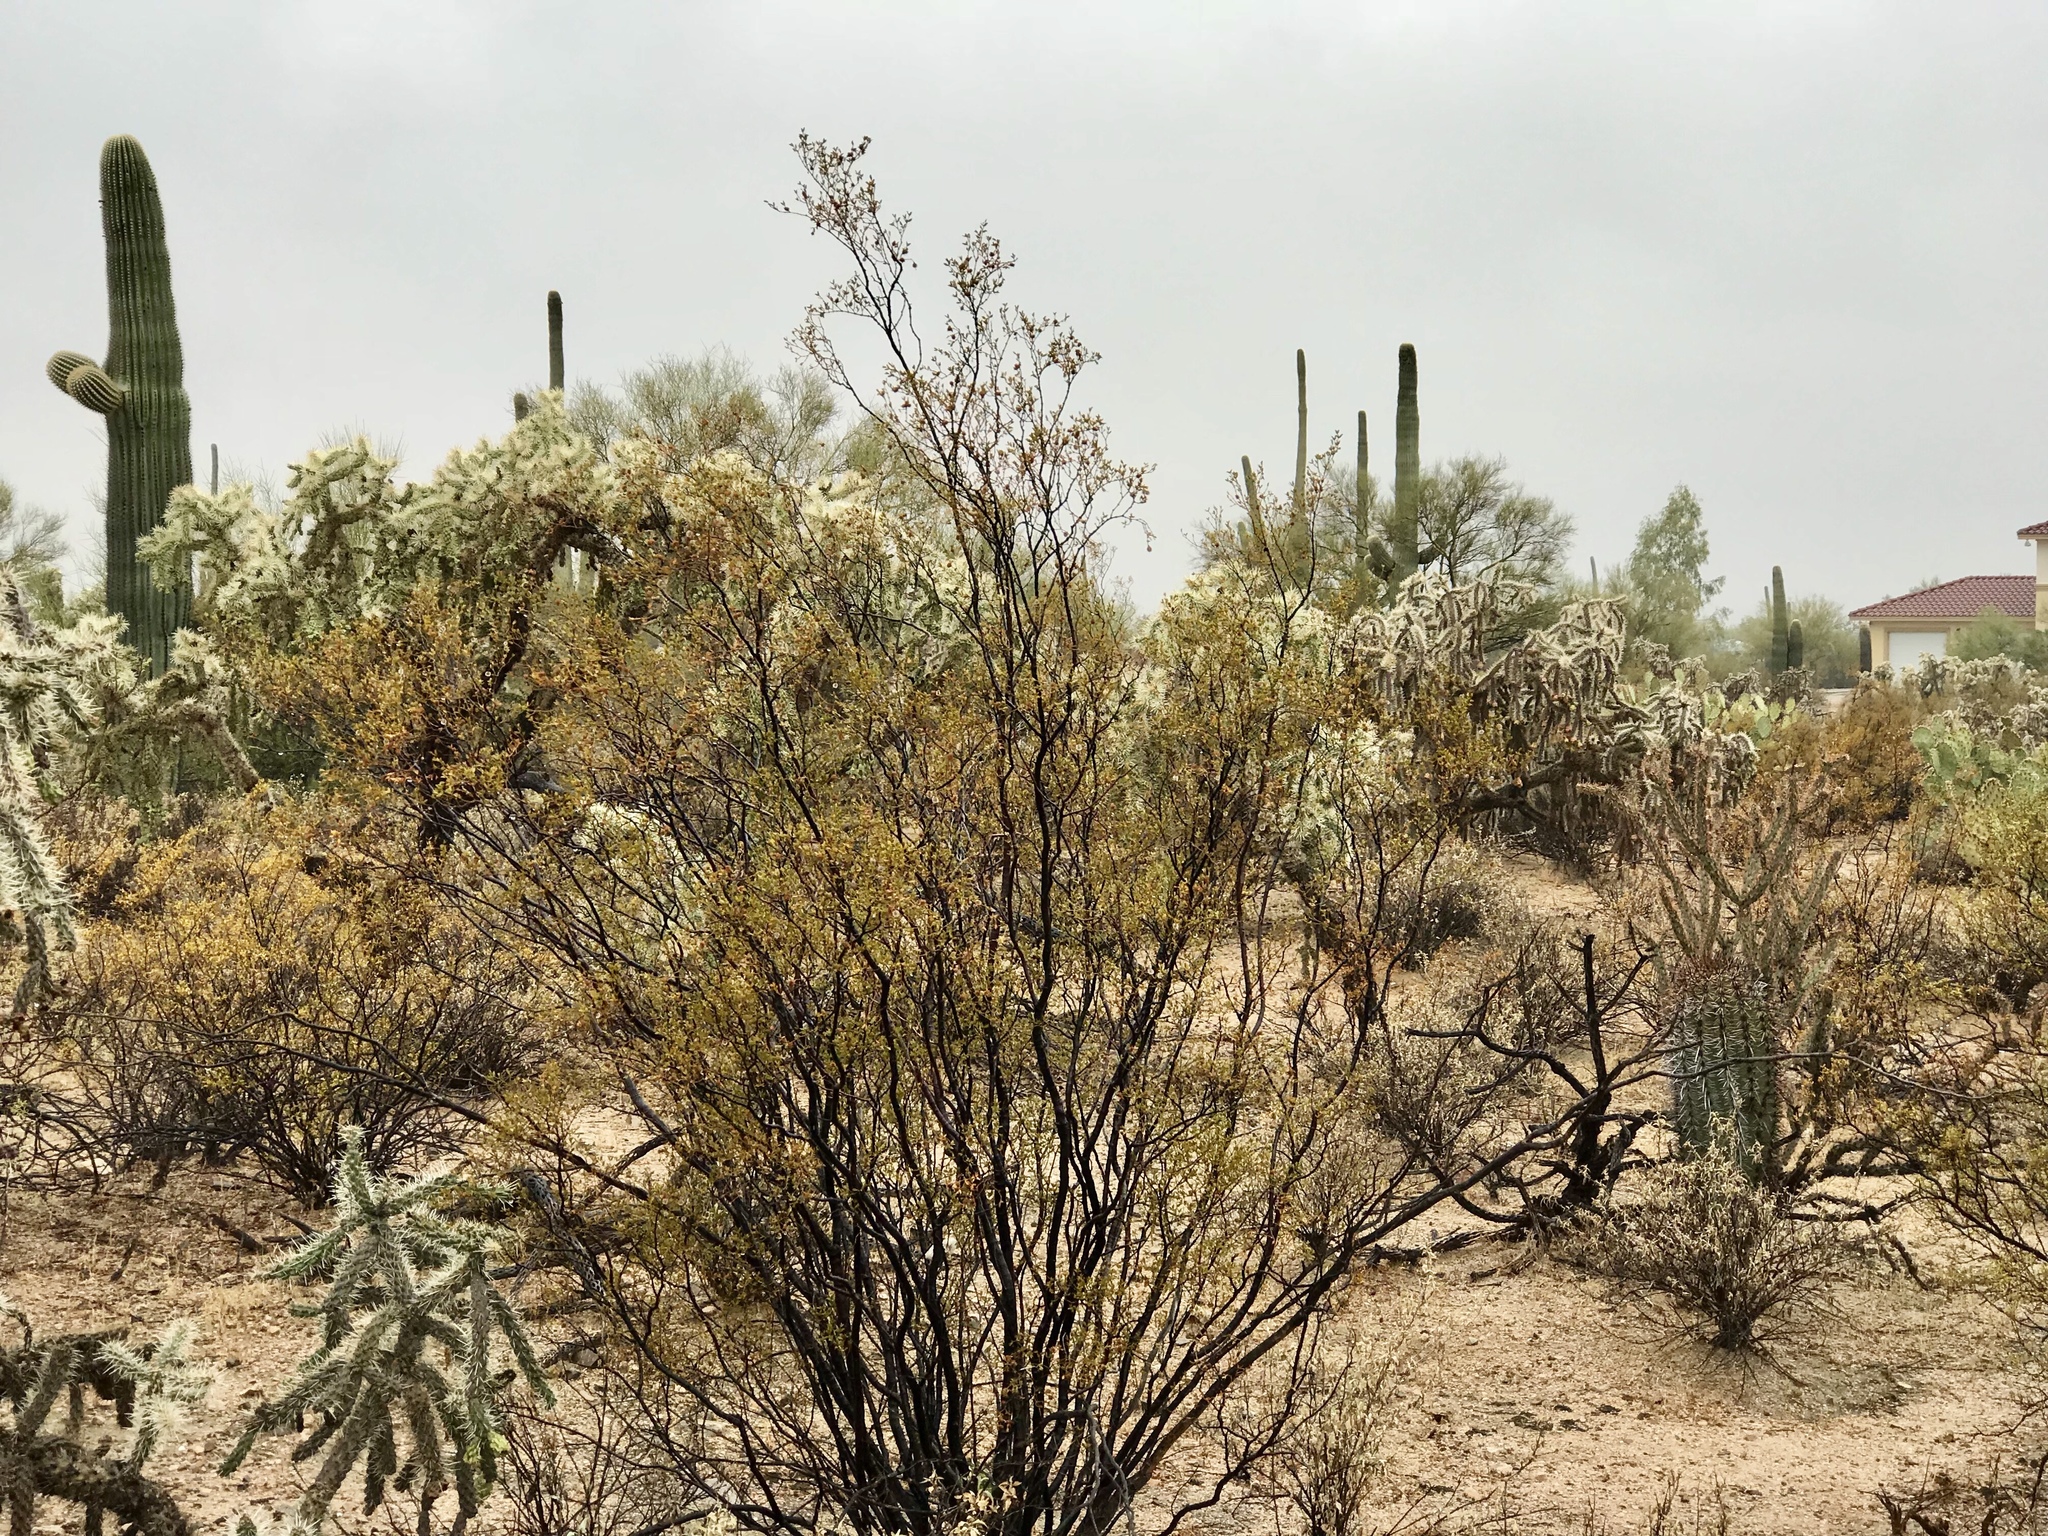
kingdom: Plantae
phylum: Tracheophyta
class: Magnoliopsida
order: Zygophyllales
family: Zygophyllaceae
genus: Larrea
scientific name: Larrea tridentata
